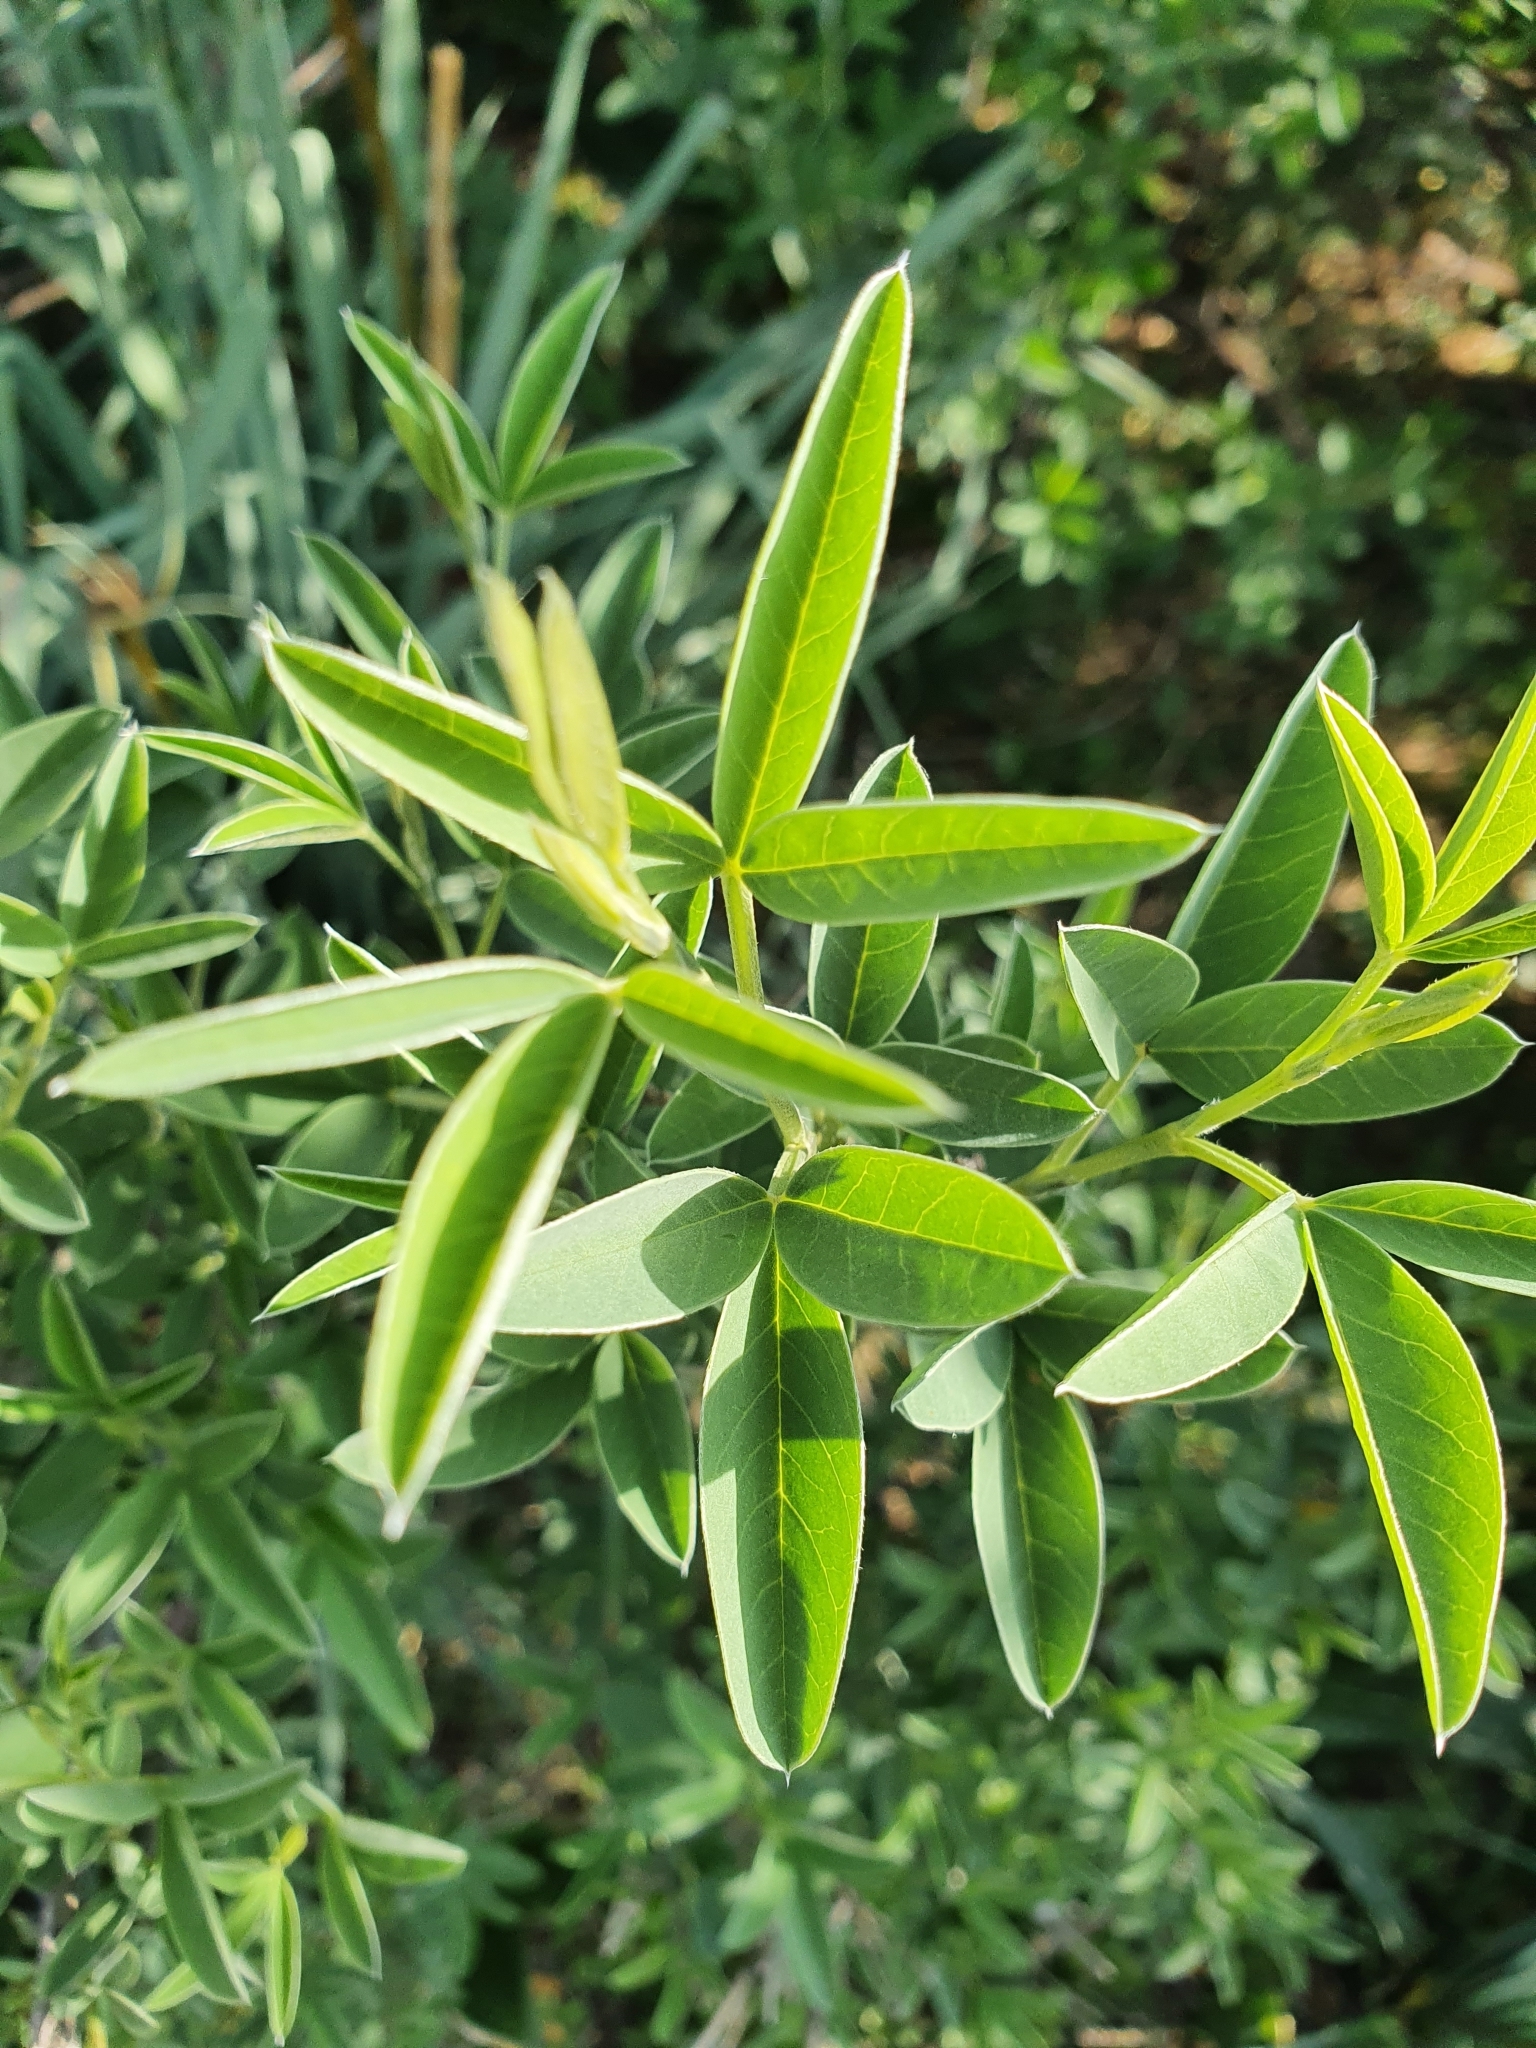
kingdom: Plantae
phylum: Tracheophyta
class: Magnoliopsida
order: Fabales
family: Fabaceae
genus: Anagyris
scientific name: Anagyris foetida
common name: Stinking bean trefoil
